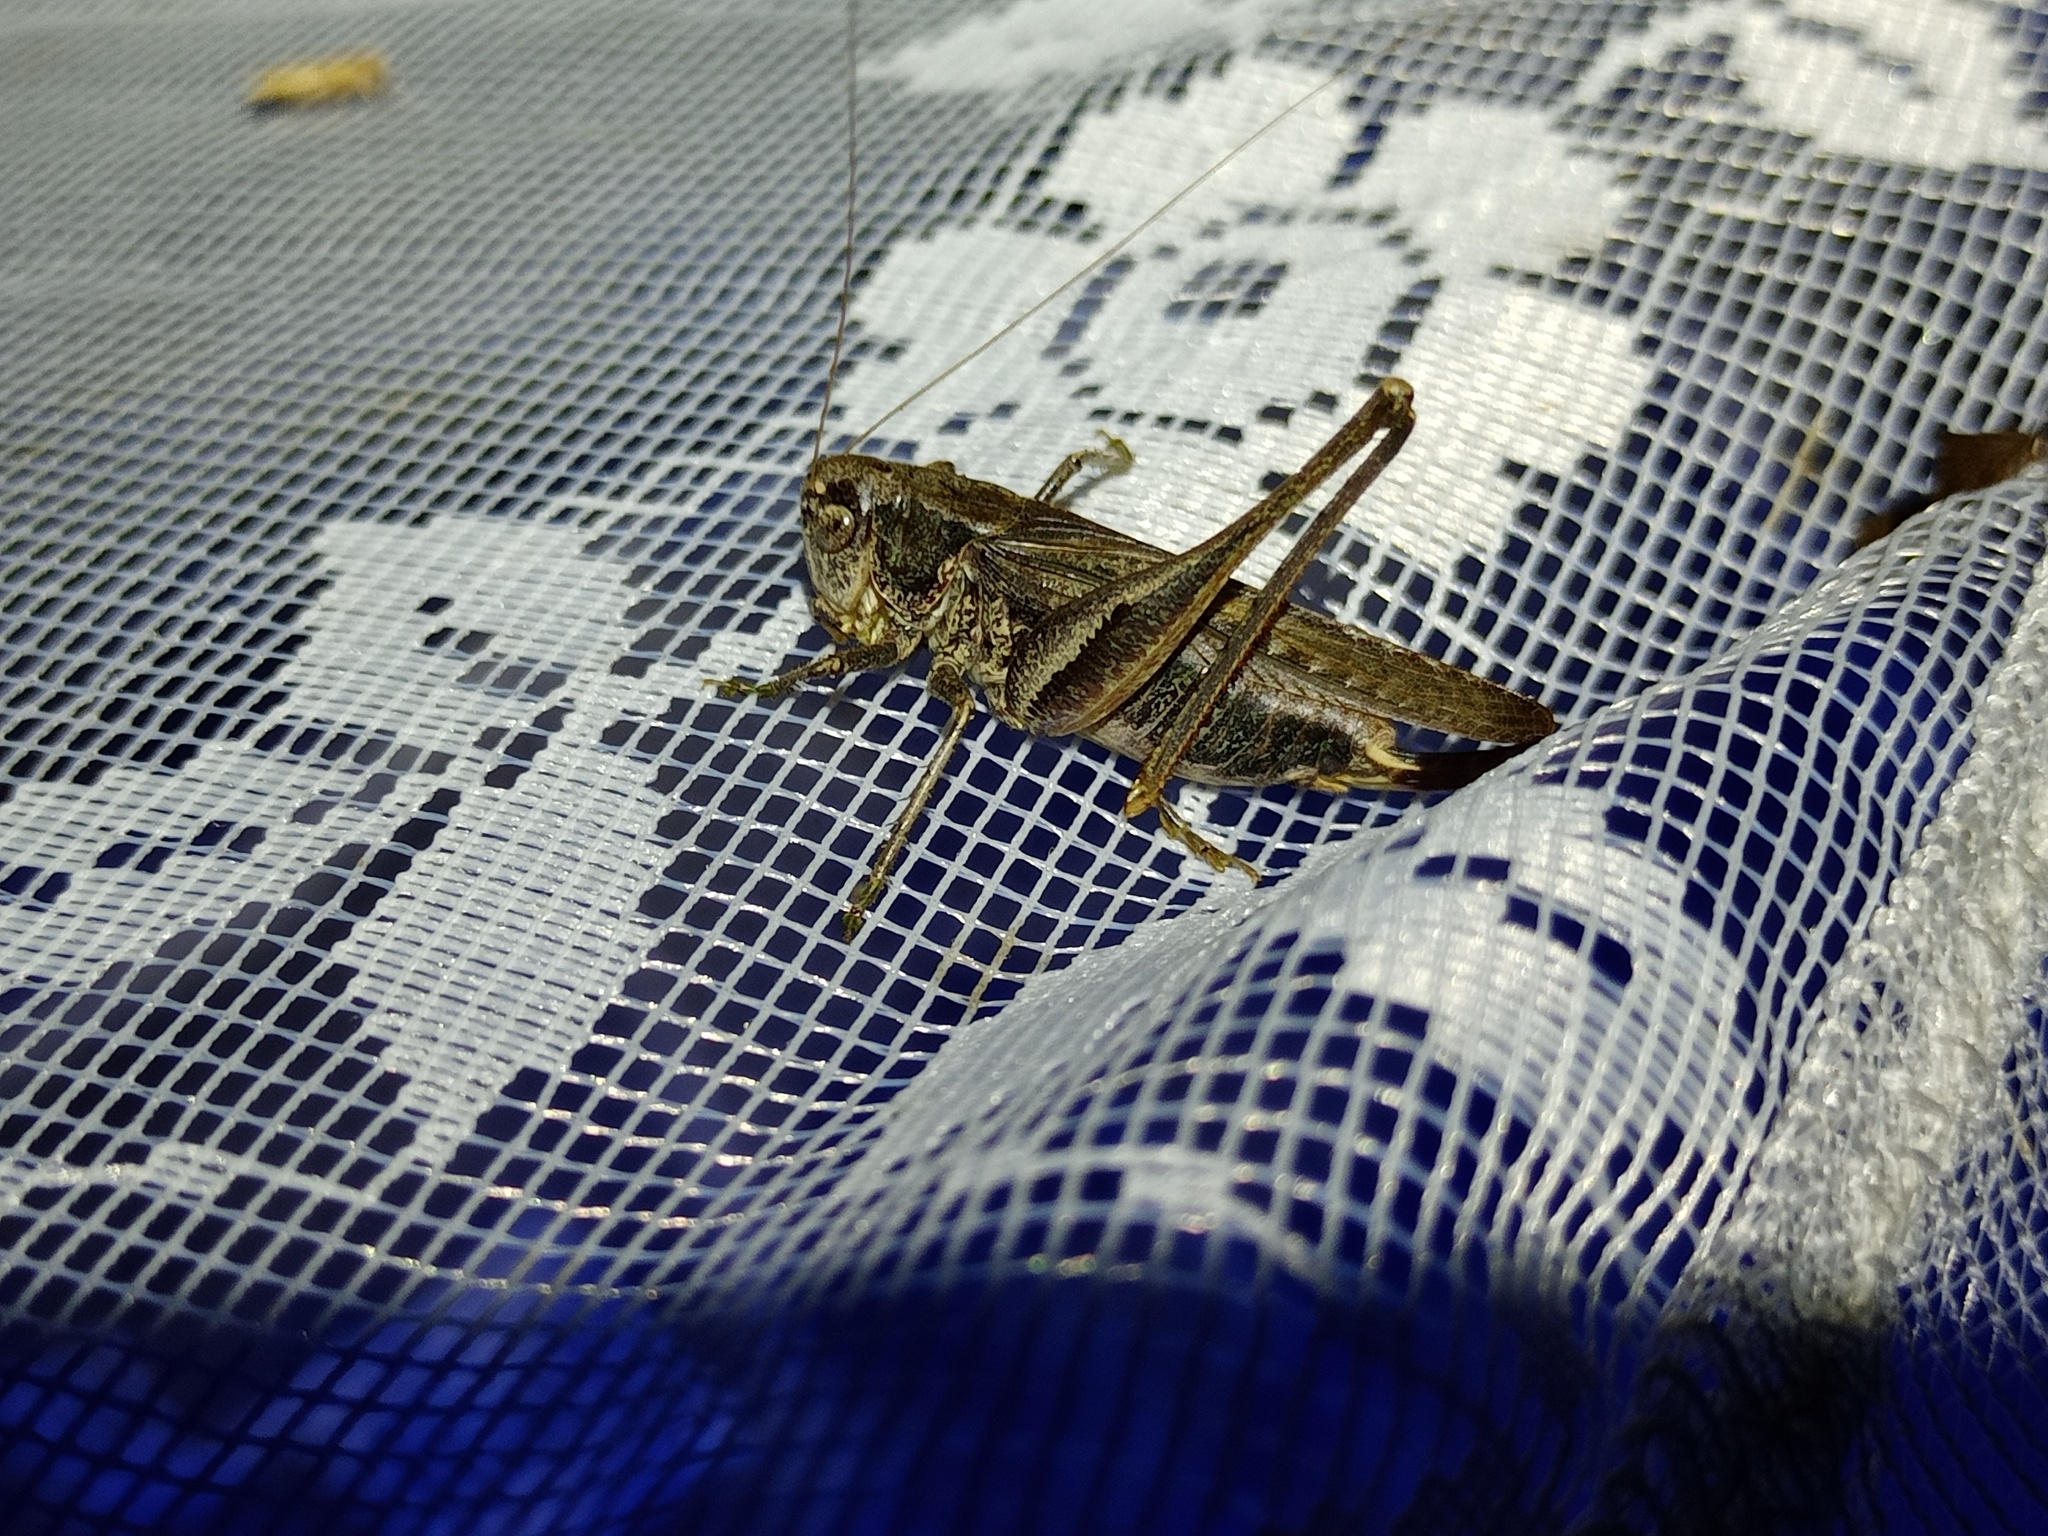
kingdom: Animalia
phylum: Arthropoda
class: Insecta
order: Orthoptera
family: Tettigoniidae
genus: Platycleis
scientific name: Platycleis albopunctata
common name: Grey bush-cricket
